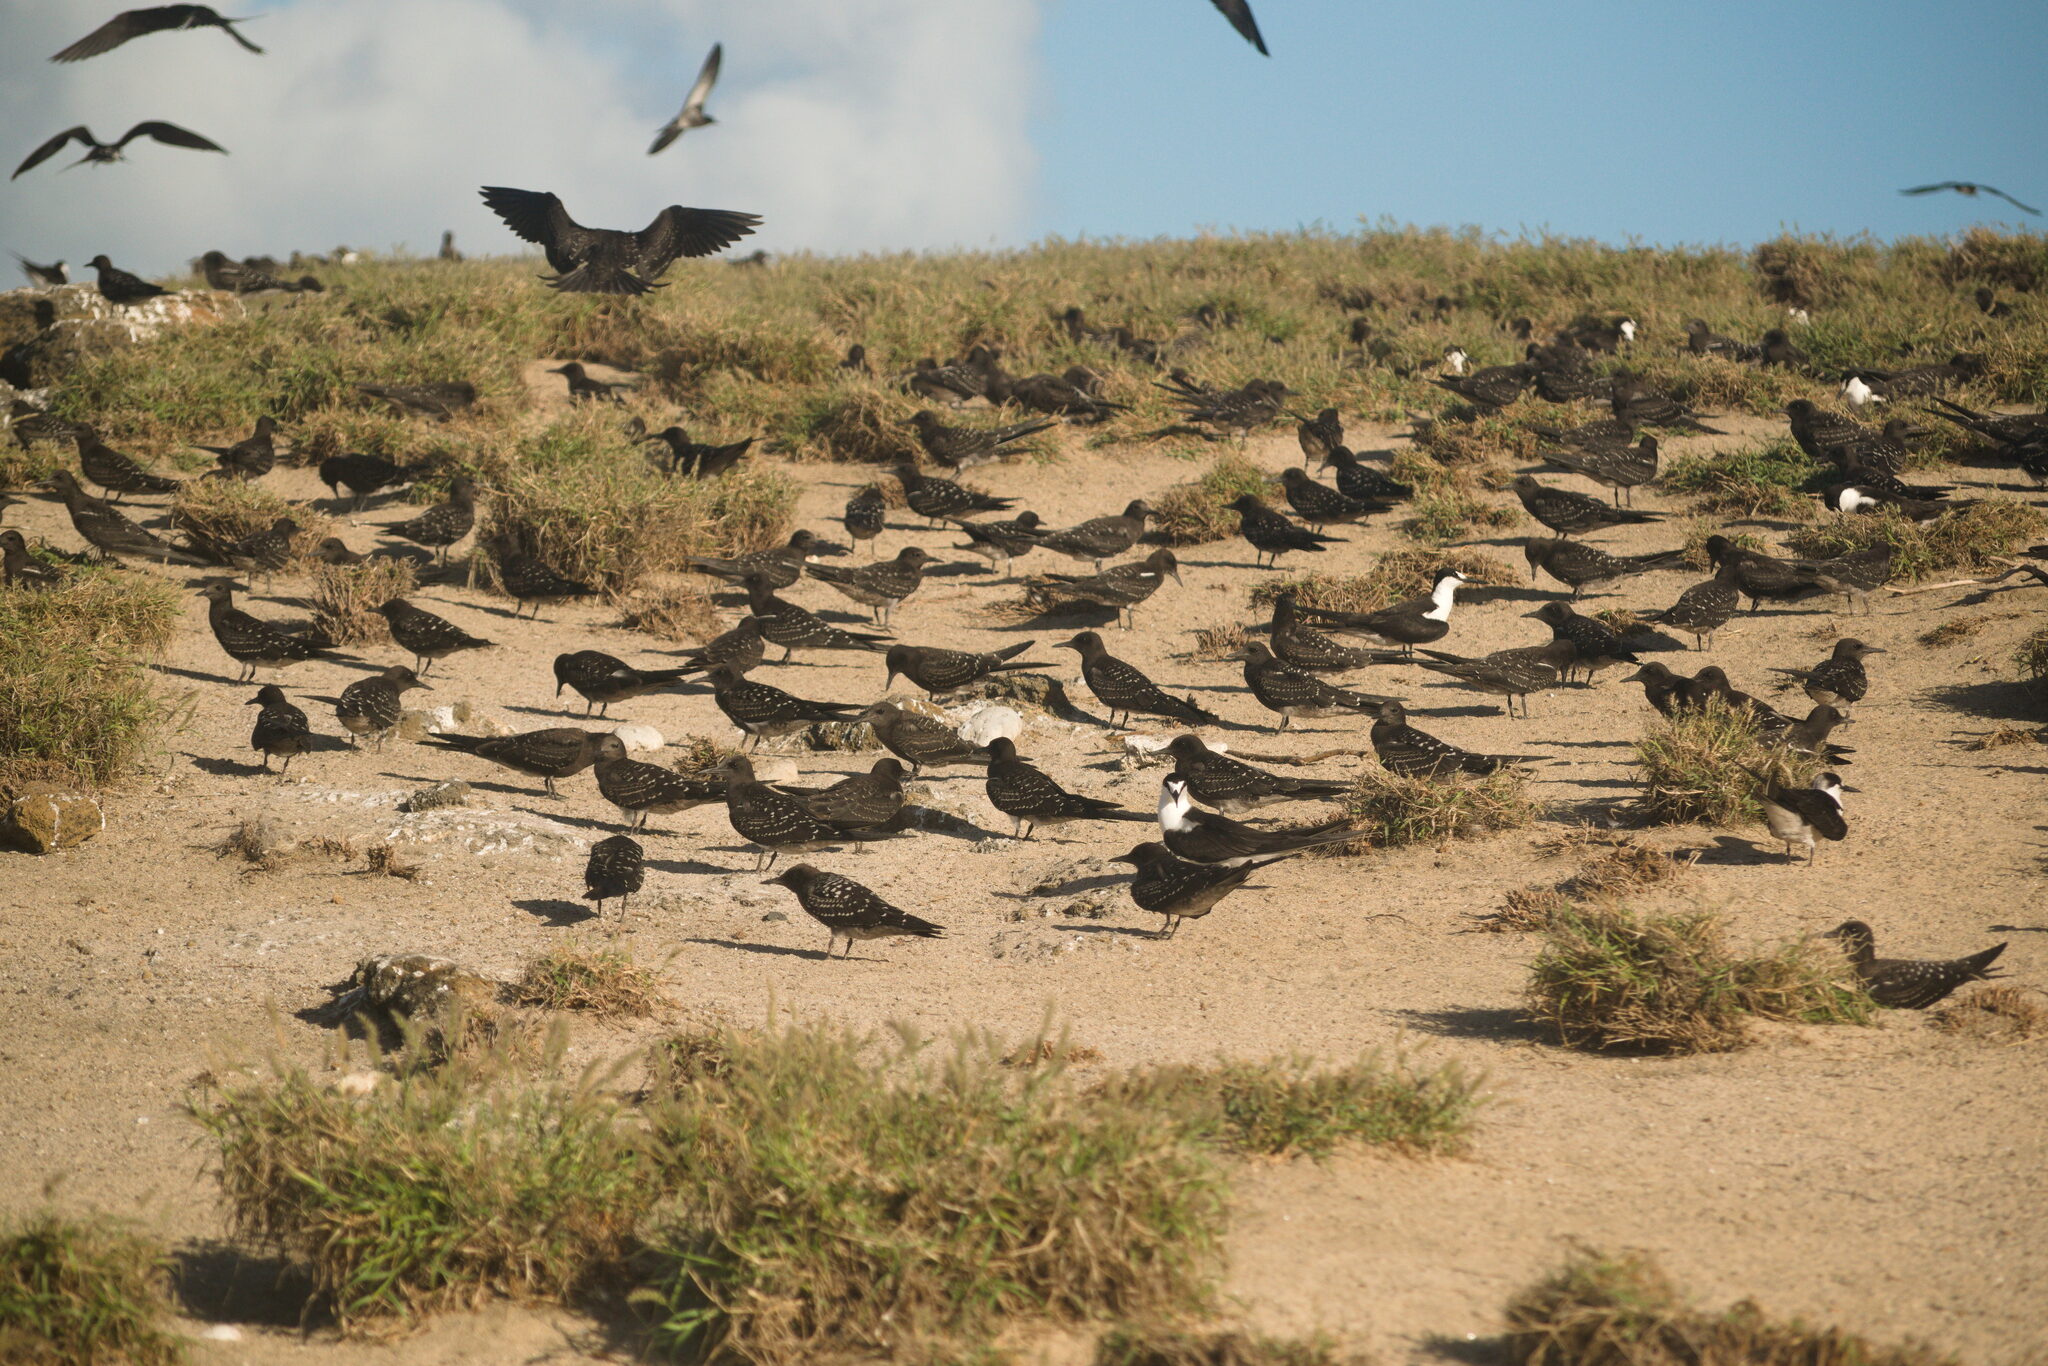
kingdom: Animalia
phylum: Chordata
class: Aves
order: Charadriiformes
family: Laridae
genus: Onychoprion
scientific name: Onychoprion fuscatus
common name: Sooty tern
